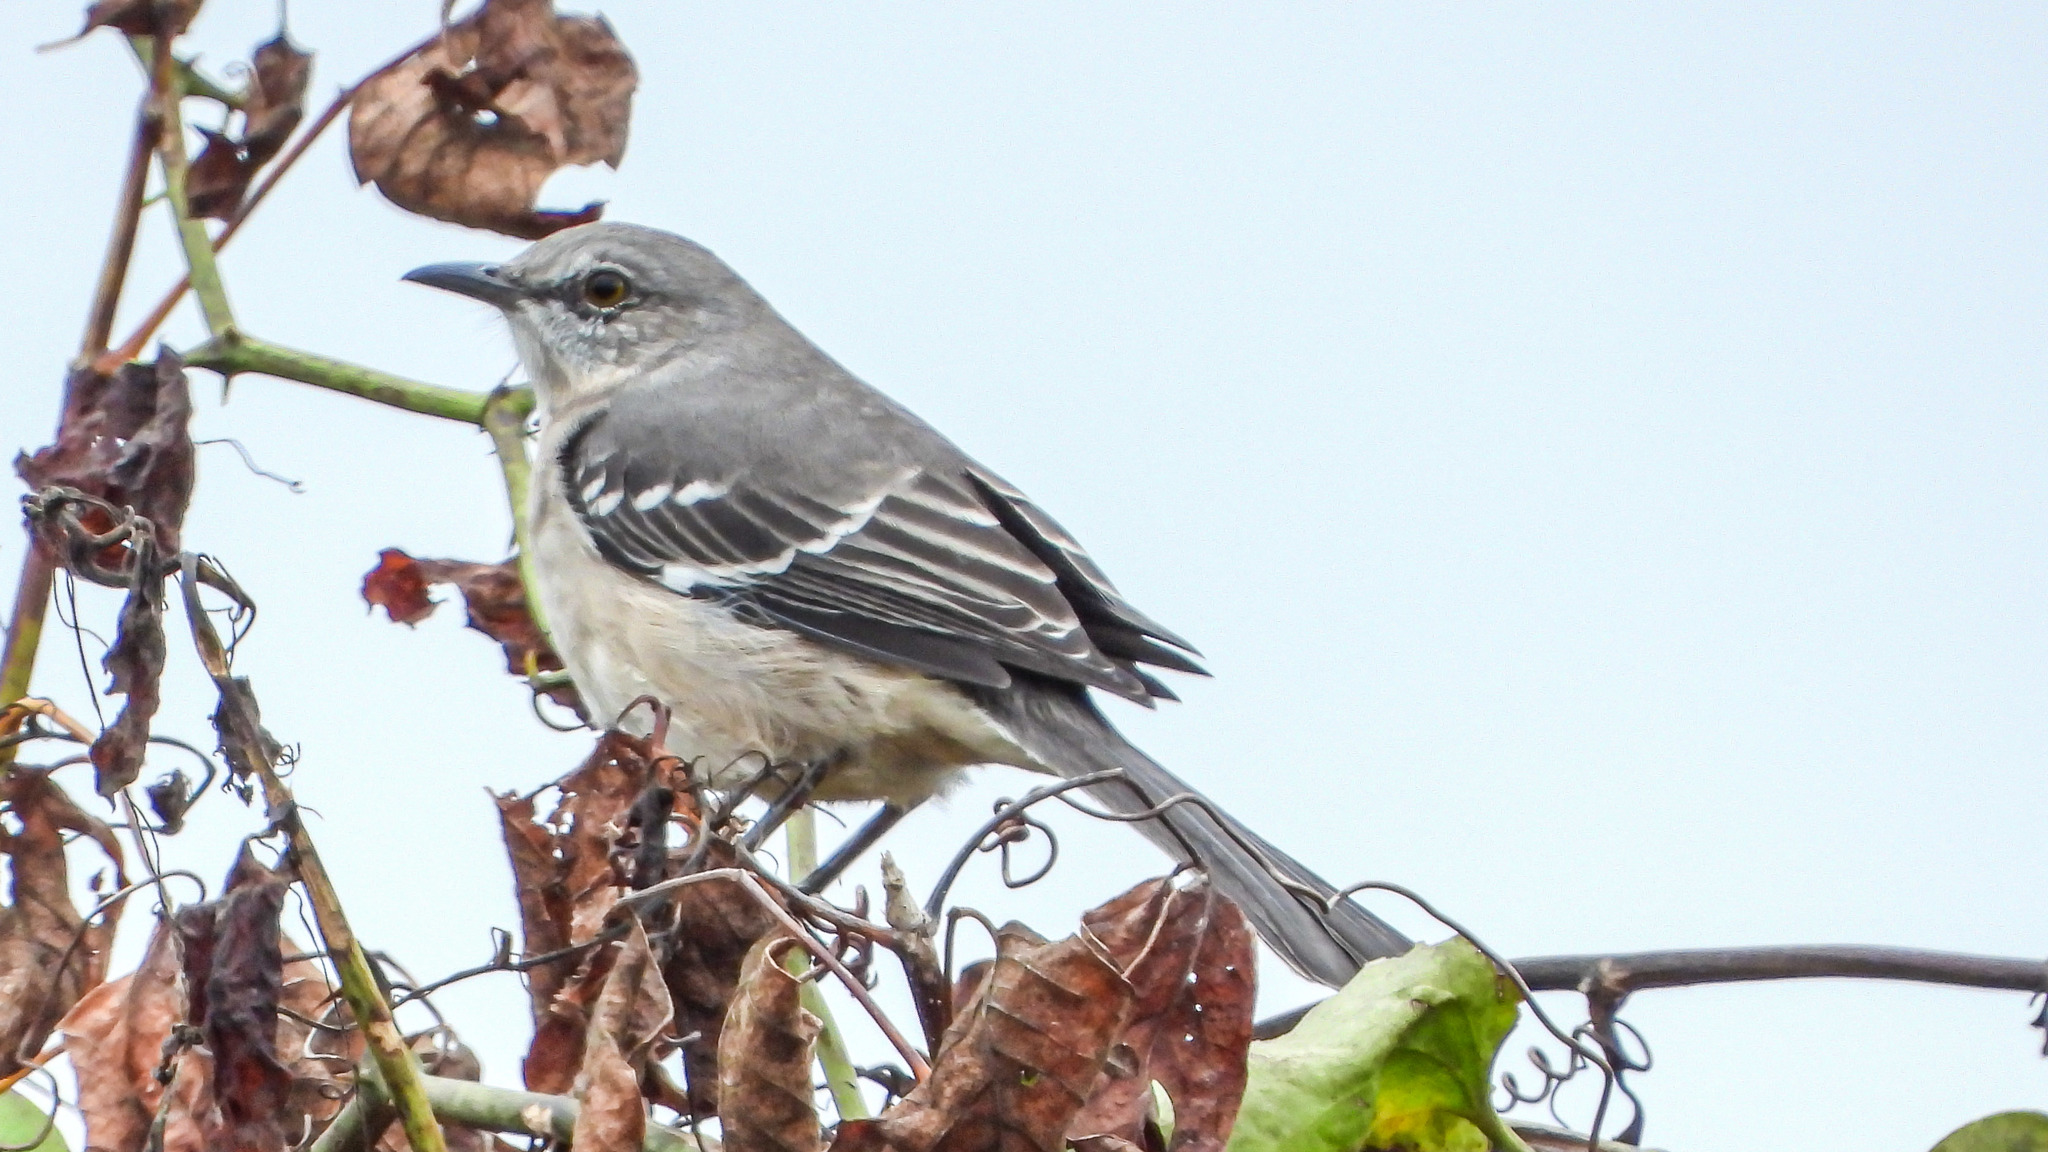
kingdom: Animalia
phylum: Chordata
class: Aves
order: Passeriformes
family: Mimidae
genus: Mimus
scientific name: Mimus polyglottos
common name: Northern mockingbird
